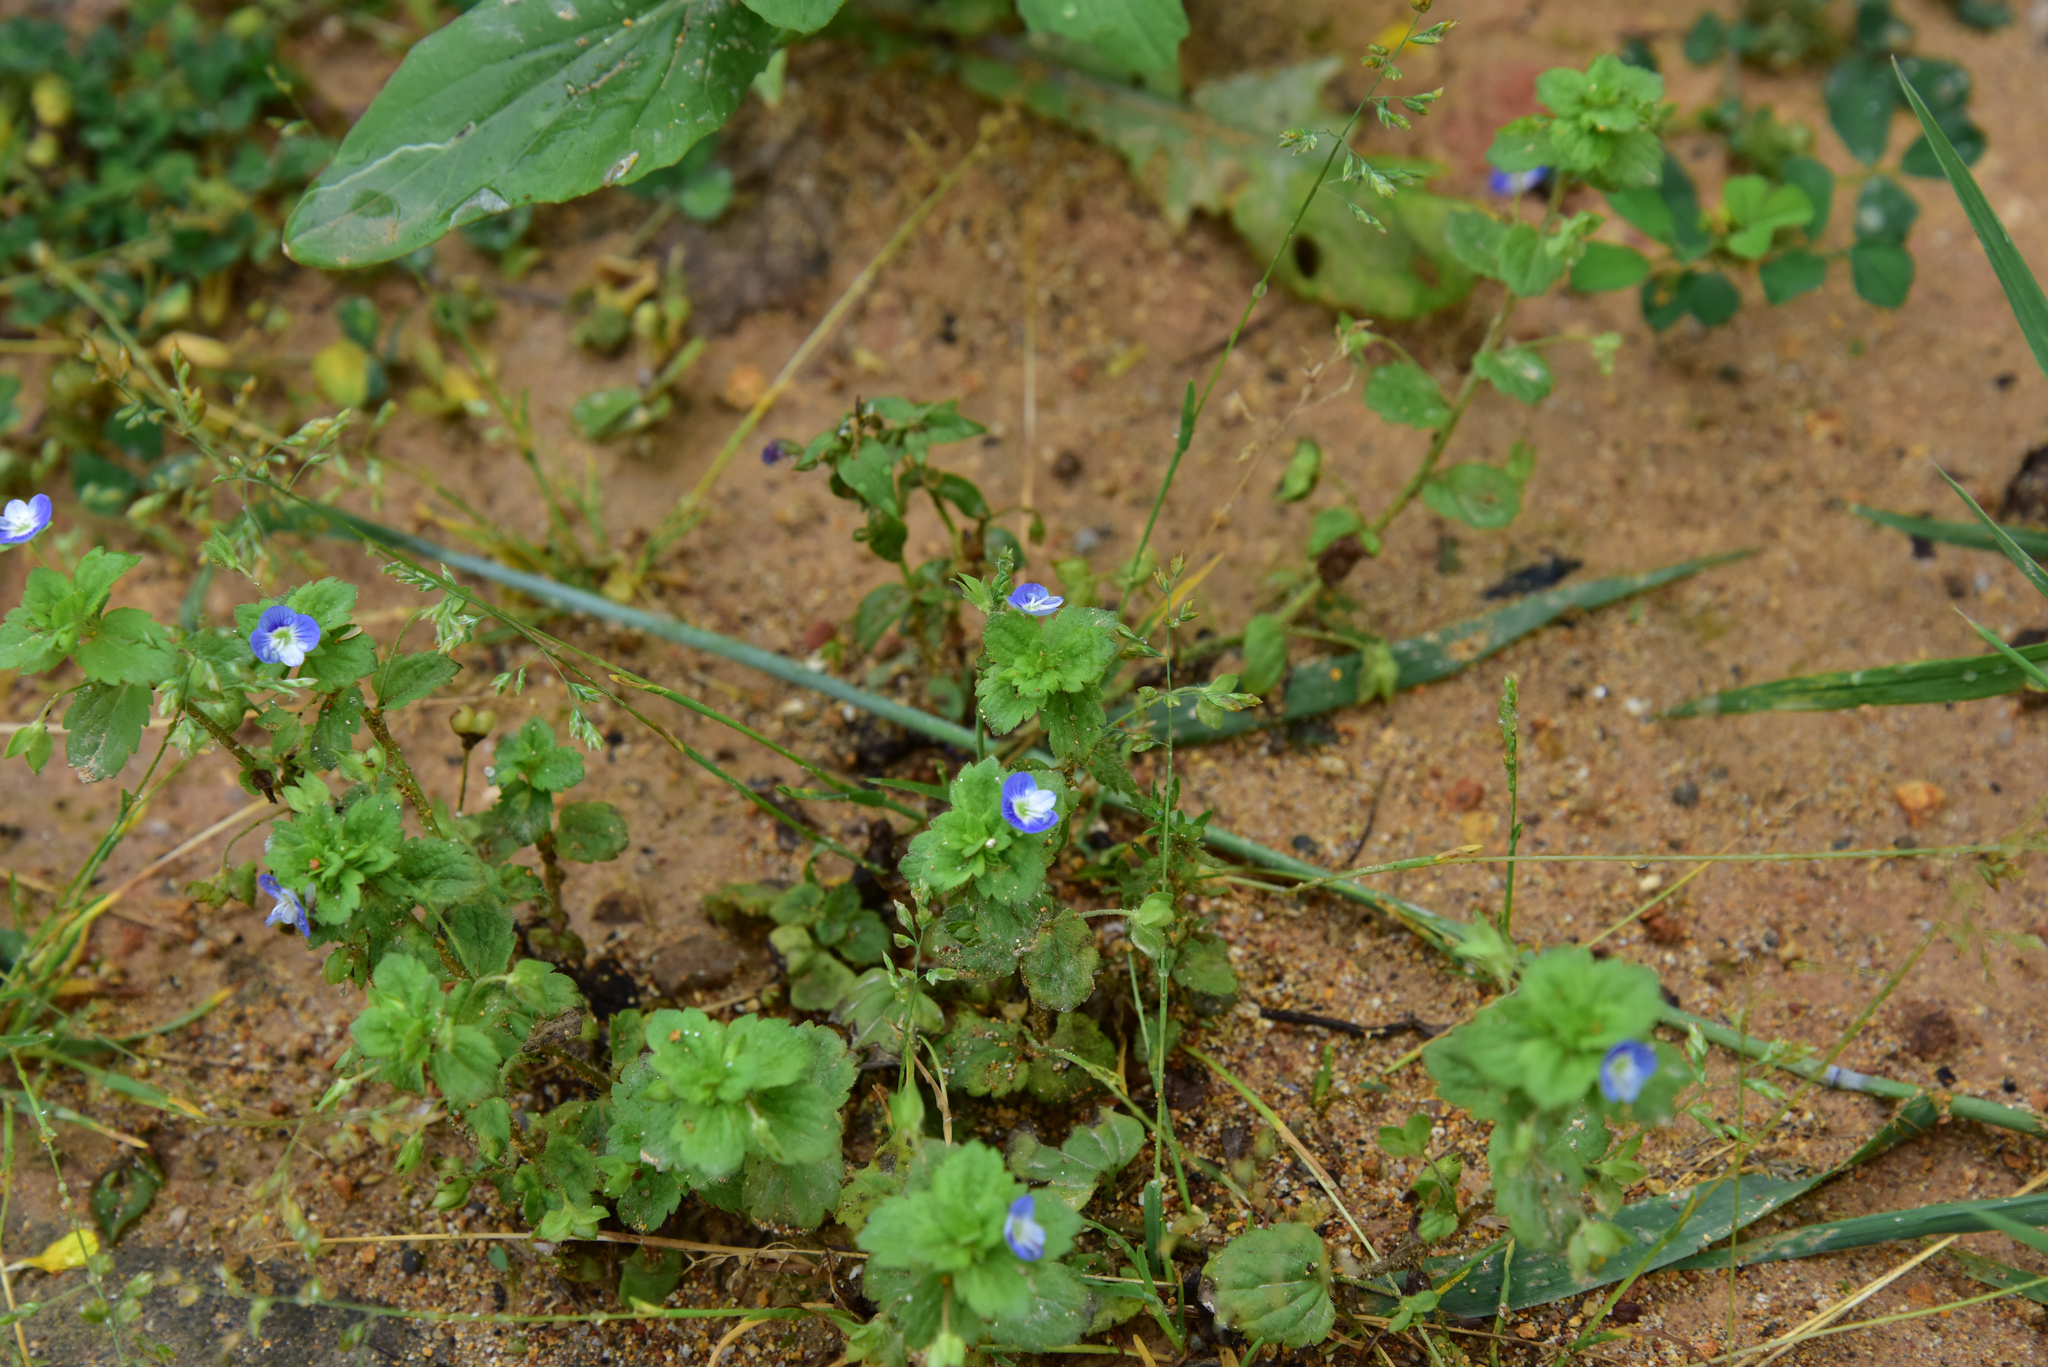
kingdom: Plantae
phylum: Tracheophyta
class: Magnoliopsida
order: Lamiales
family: Plantaginaceae
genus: Veronica
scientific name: Veronica persica
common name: Common field-speedwell
